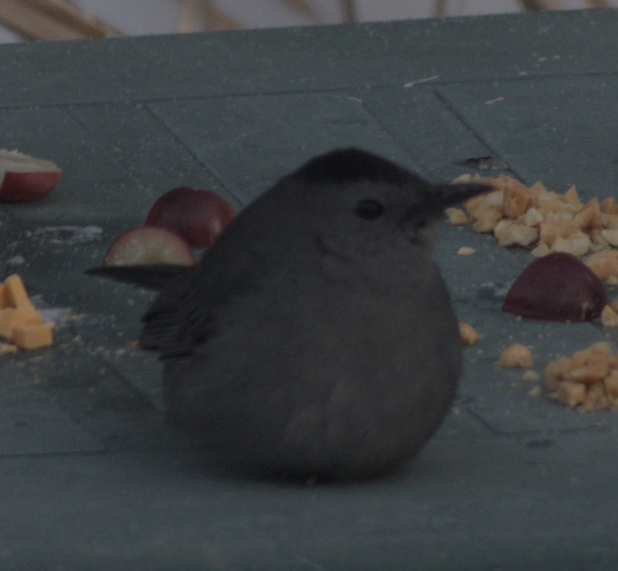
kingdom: Animalia
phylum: Chordata
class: Aves
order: Passeriformes
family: Mimidae
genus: Dumetella
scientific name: Dumetella carolinensis
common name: Gray catbird
